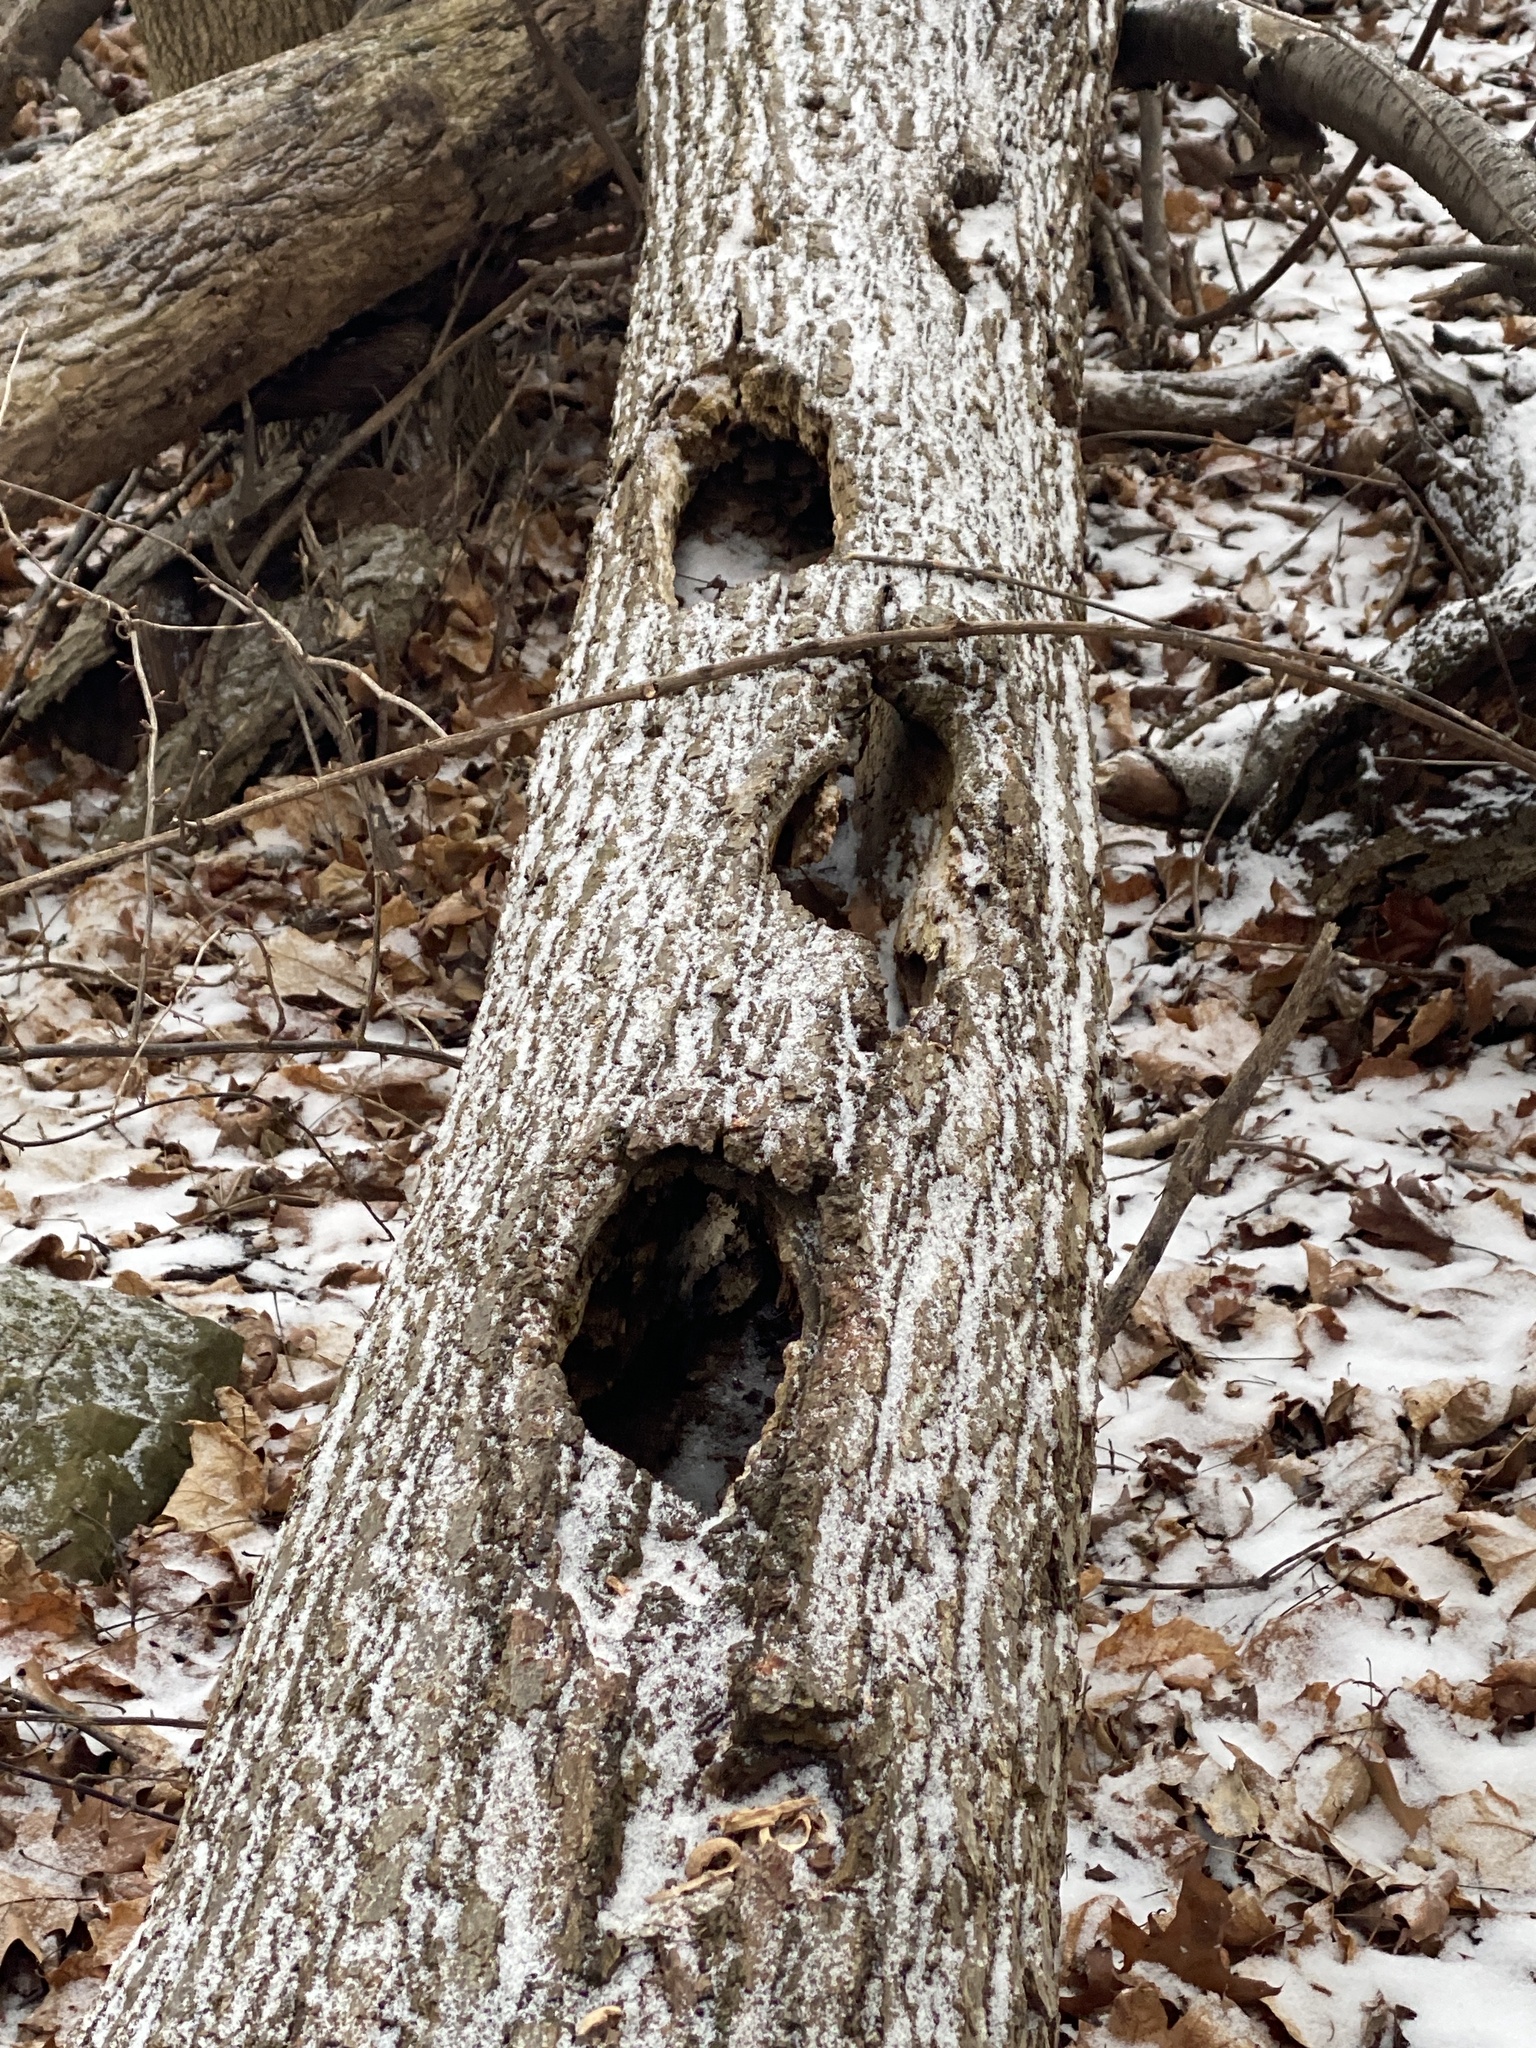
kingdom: Animalia
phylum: Chordata
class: Aves
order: Piciformes
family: Picidae
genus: Dryocopus
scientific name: Dryocopus pileatus
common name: Pileated woodpecker
